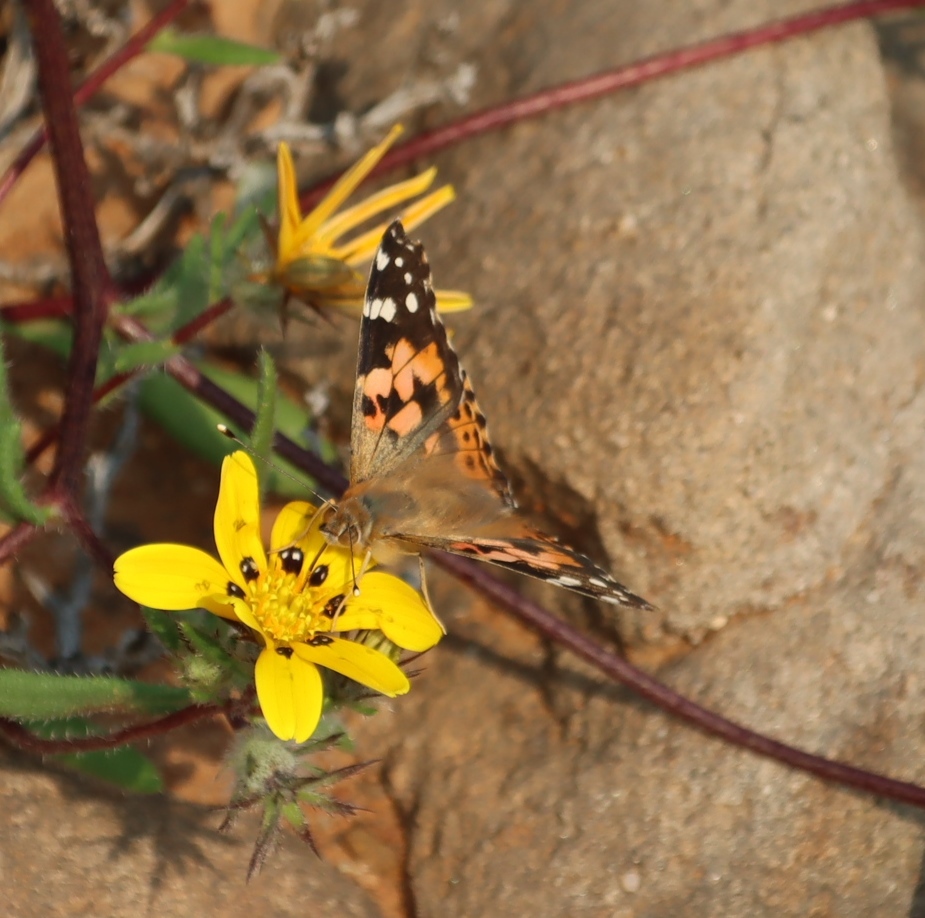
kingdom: Animalia
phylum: Arthropoda
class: Insecta
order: Lepidoptera
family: Nymphalidae
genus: Vanessa
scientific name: Vanessa cardui
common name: Painted lady
